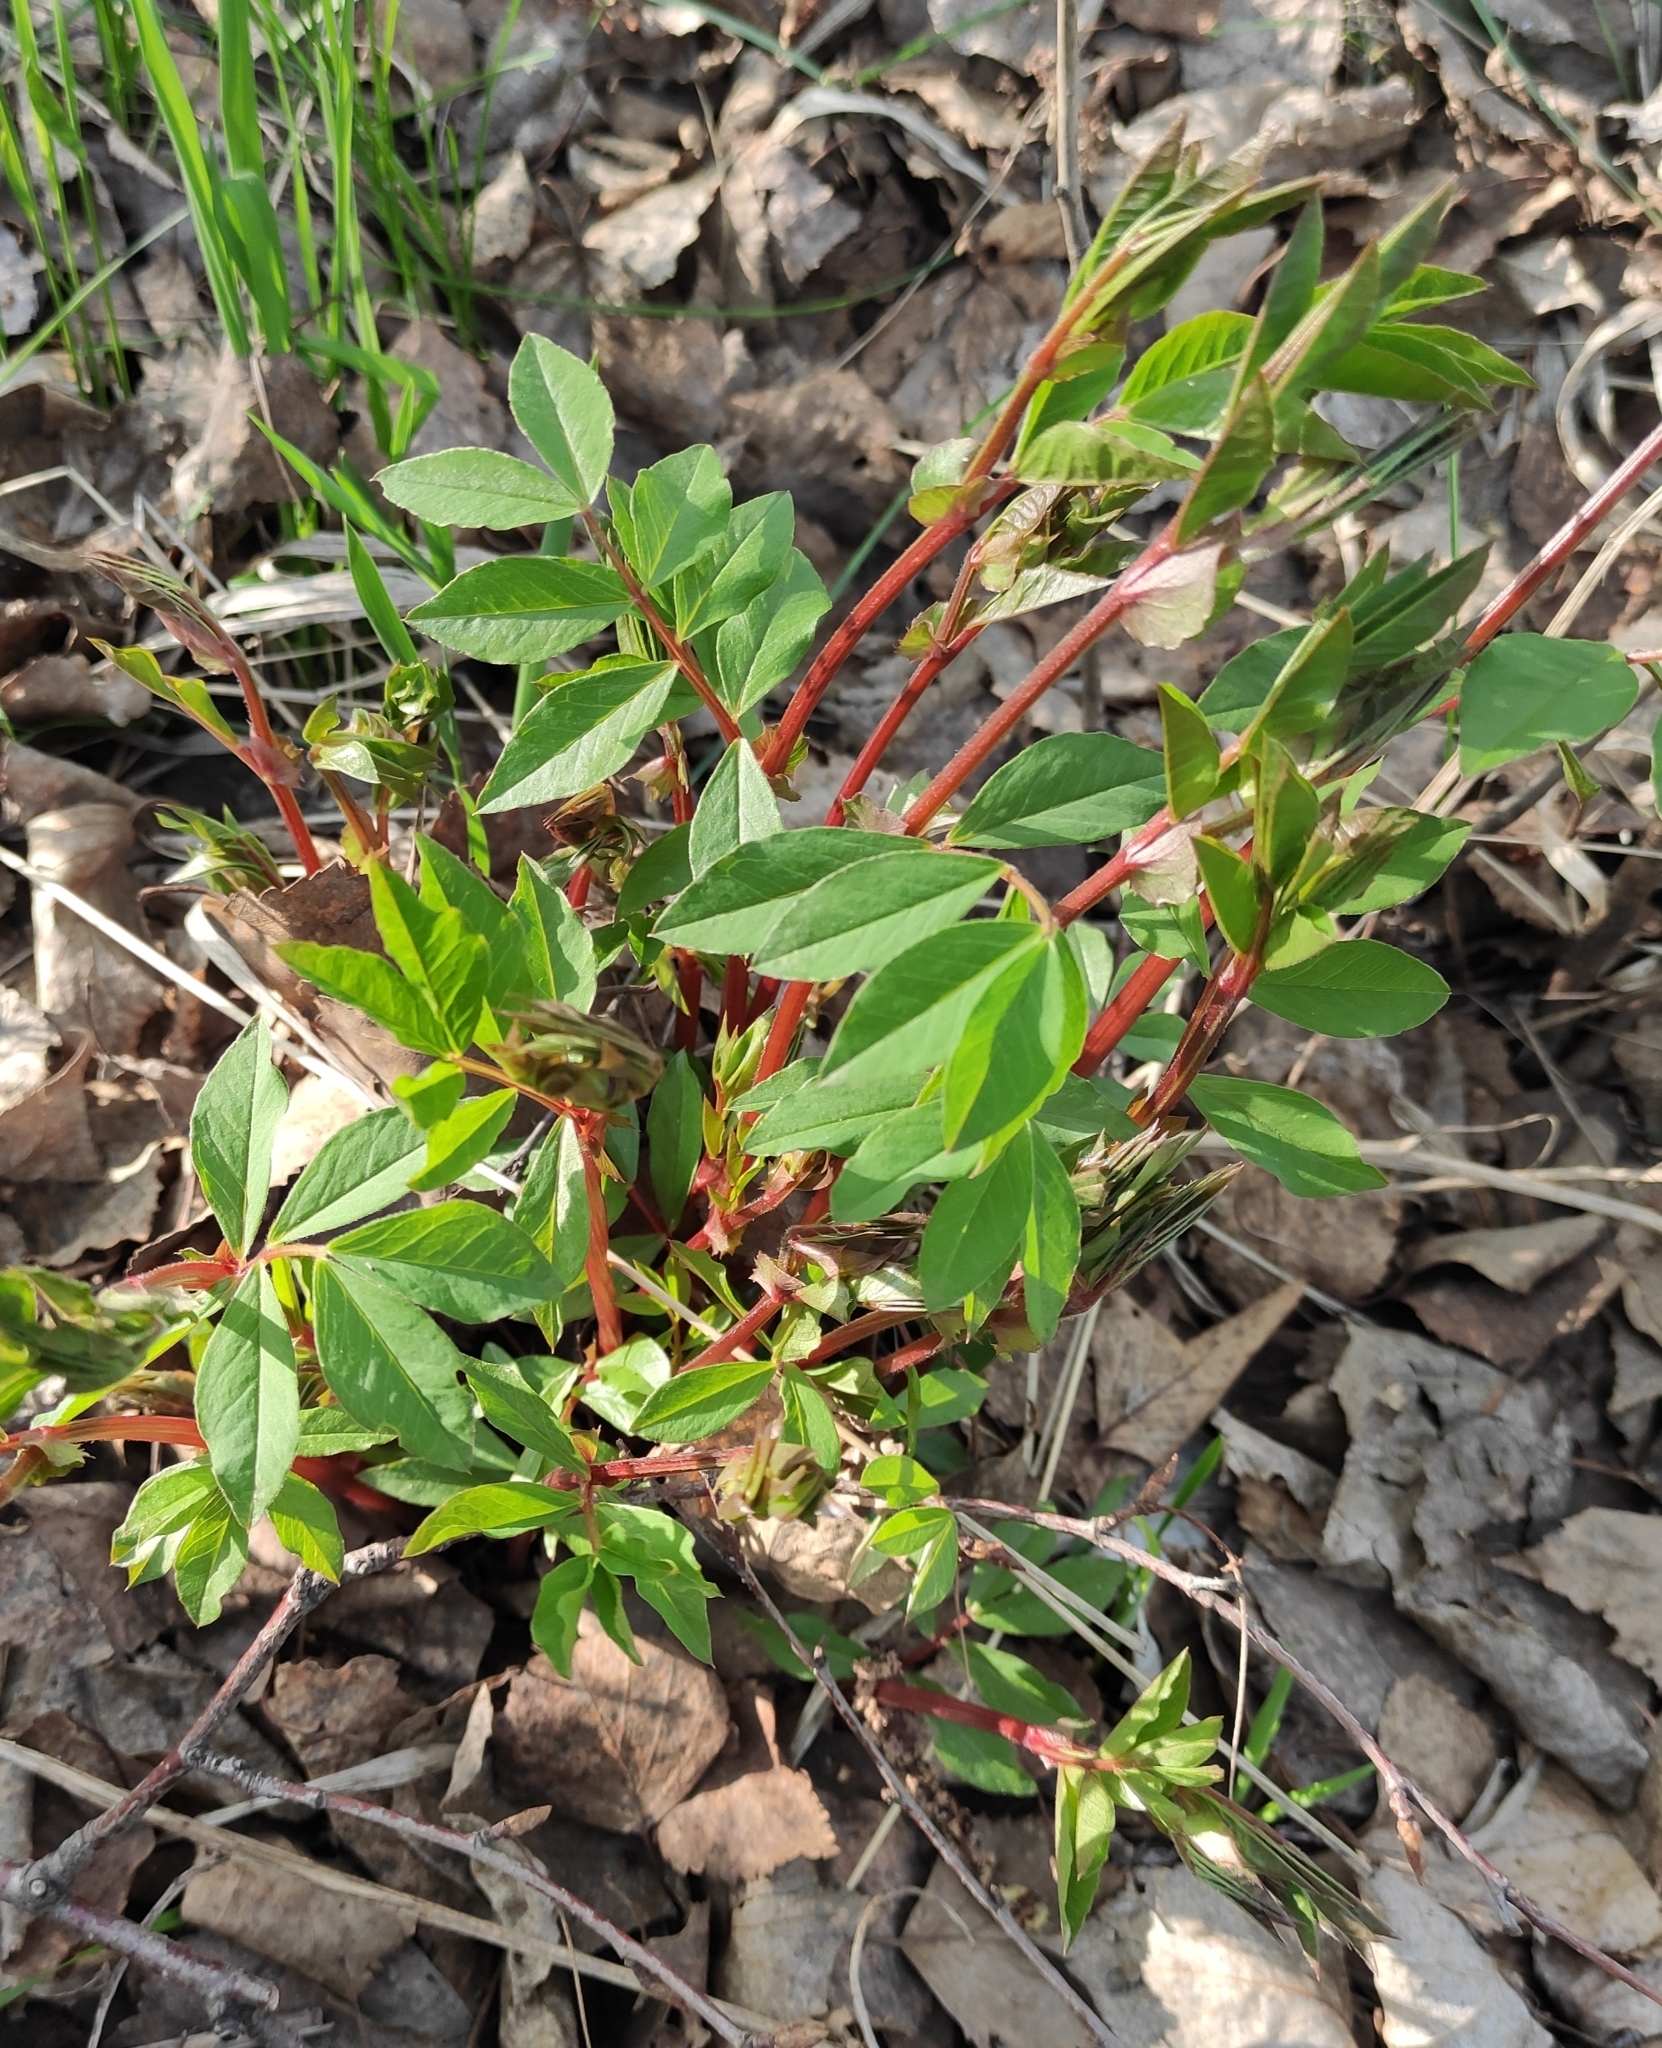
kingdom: Plantae
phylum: Tracheophyta
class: Magnoliopsida
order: Fabales
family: Fabaceae
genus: Vicia
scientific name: Vicia ramuliflora
